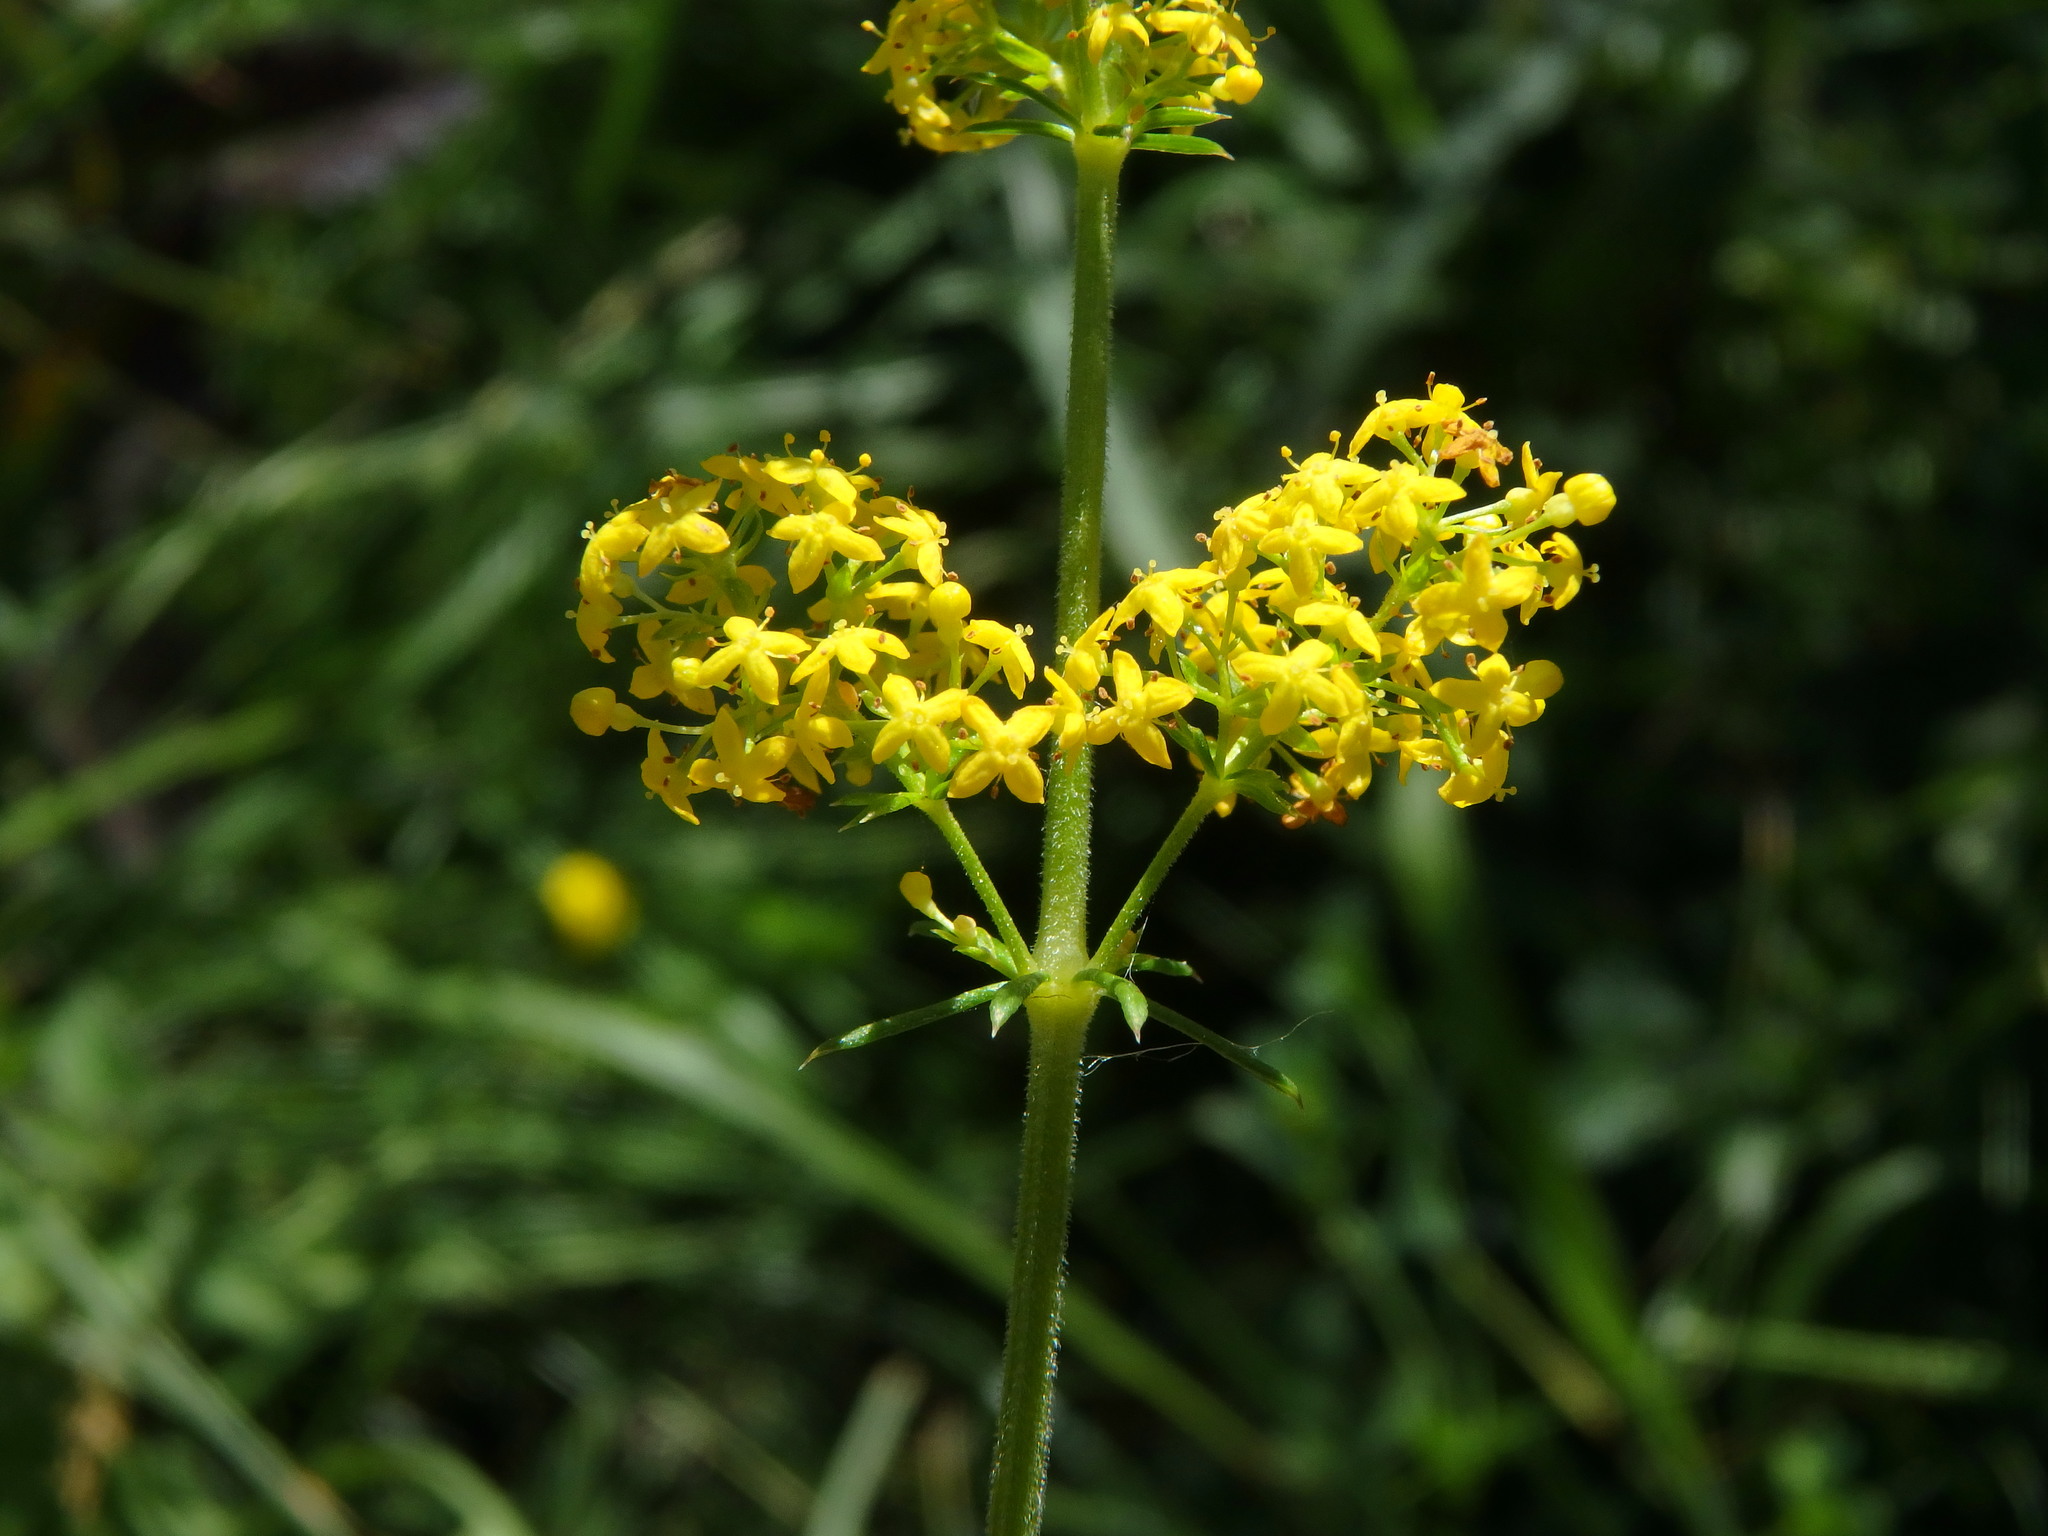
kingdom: Plantae
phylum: Tracheophyta
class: Magnoliopsida
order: Gentianales
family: Rubiaceae
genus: Galium
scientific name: Galium verum
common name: Lady's bedstraw
